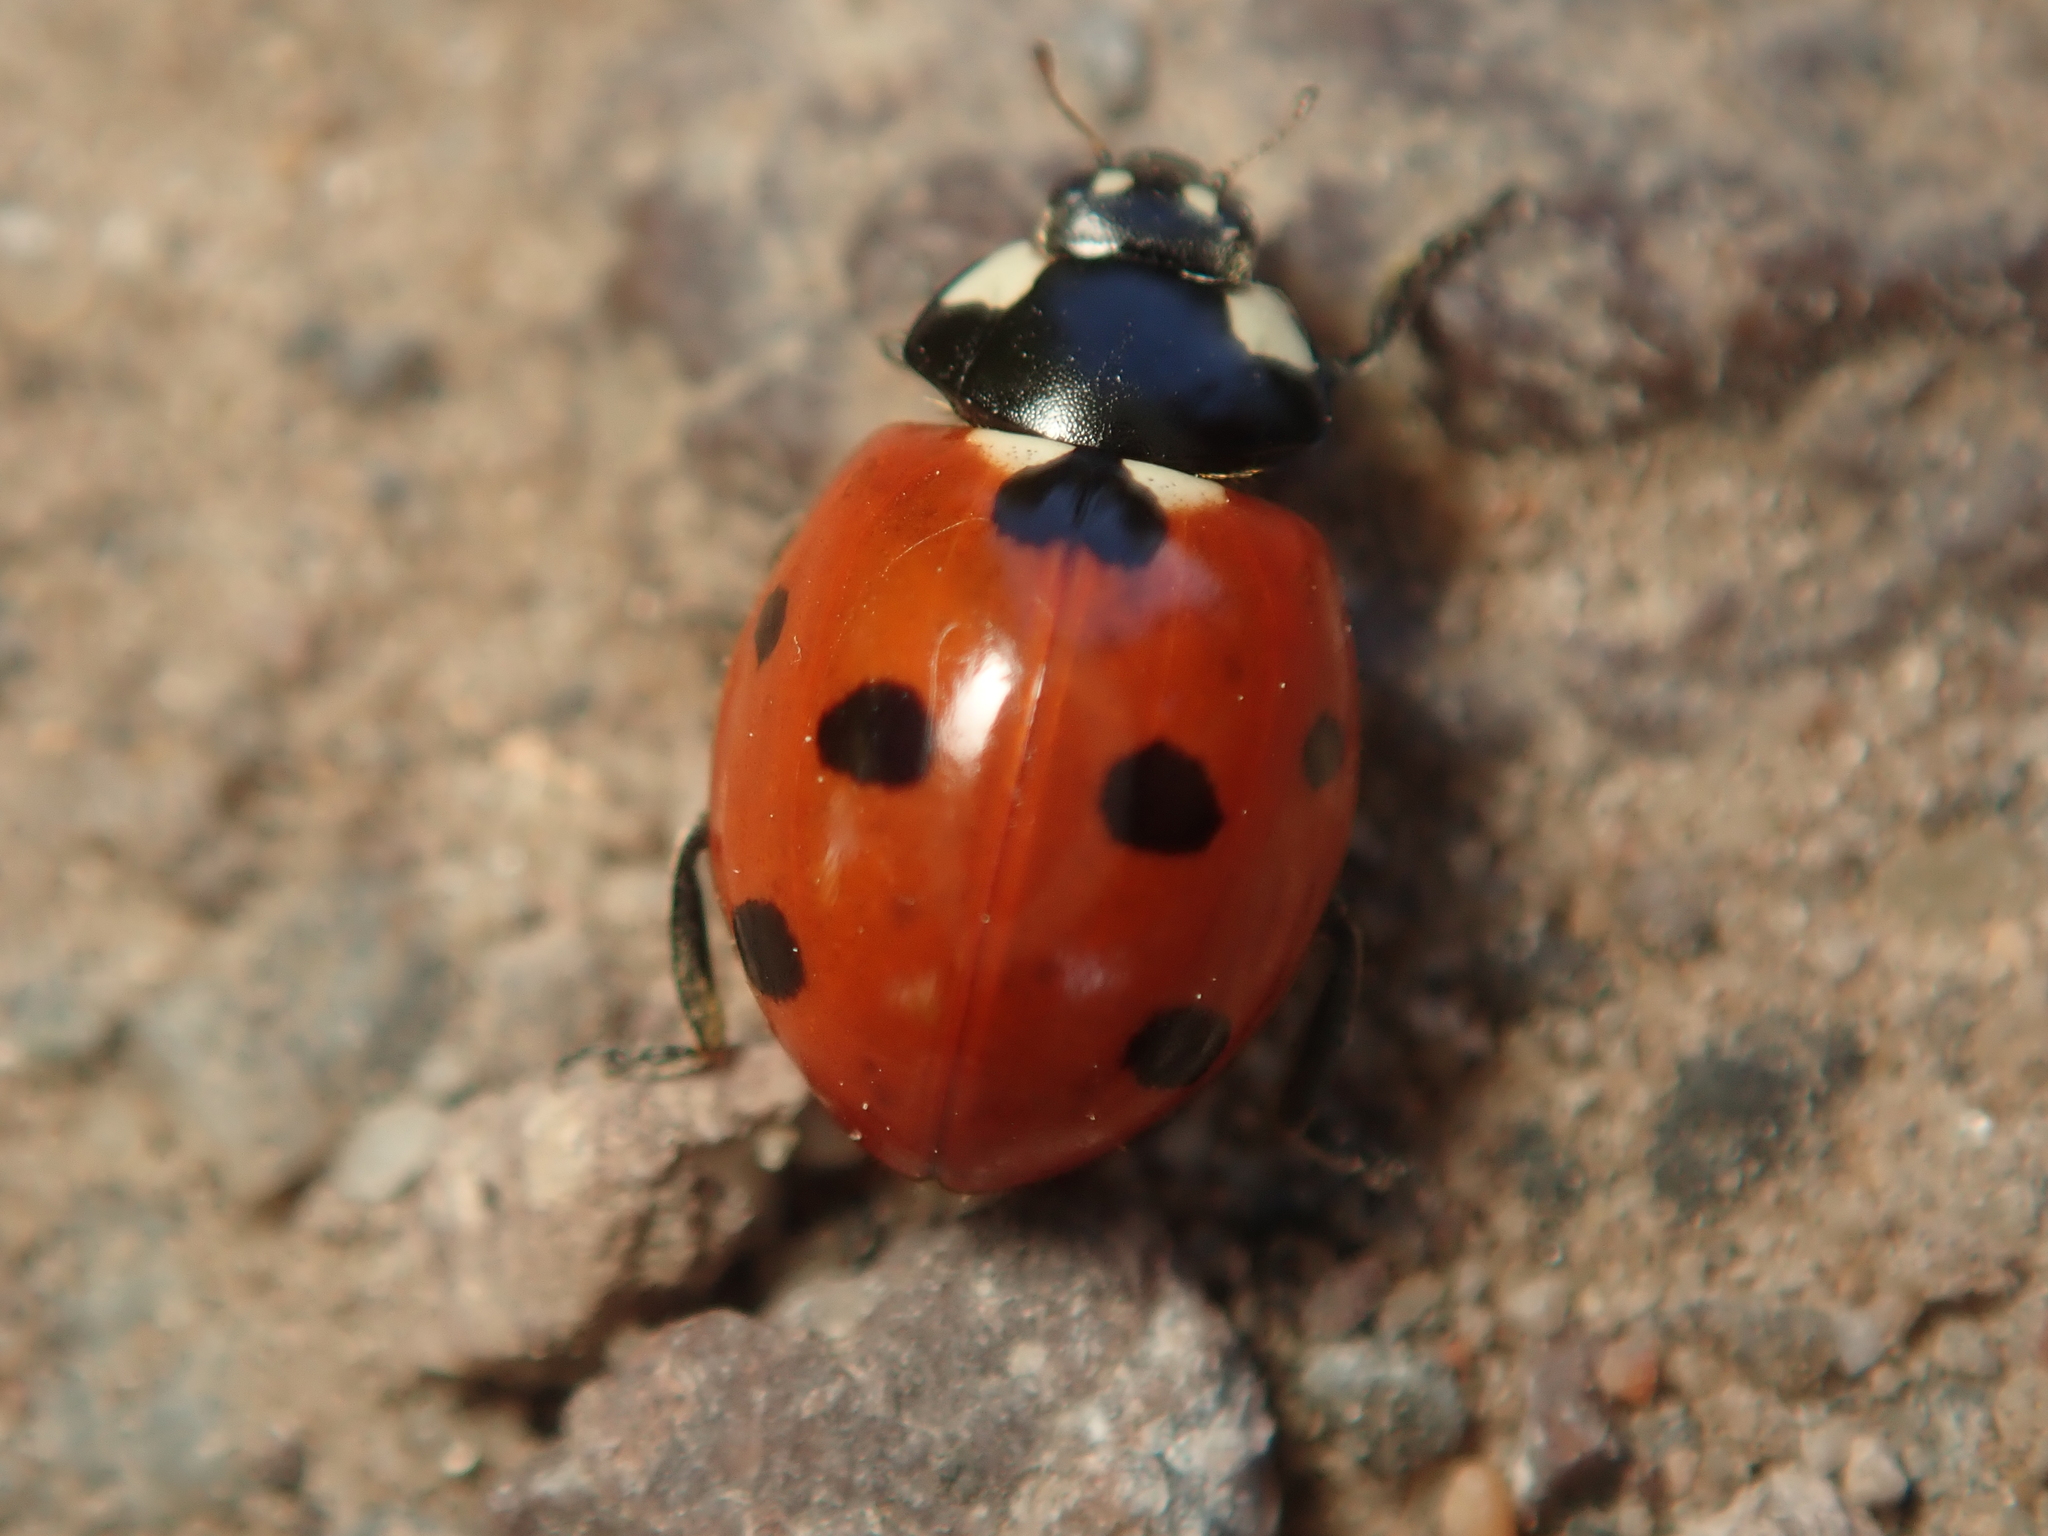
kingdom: Animalia
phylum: Arthropoda
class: Insecta
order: Coleoptera
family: Coccinellidae
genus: Coccinella
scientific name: Coccinella septempunctata
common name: Sevenspotted lady beetle
